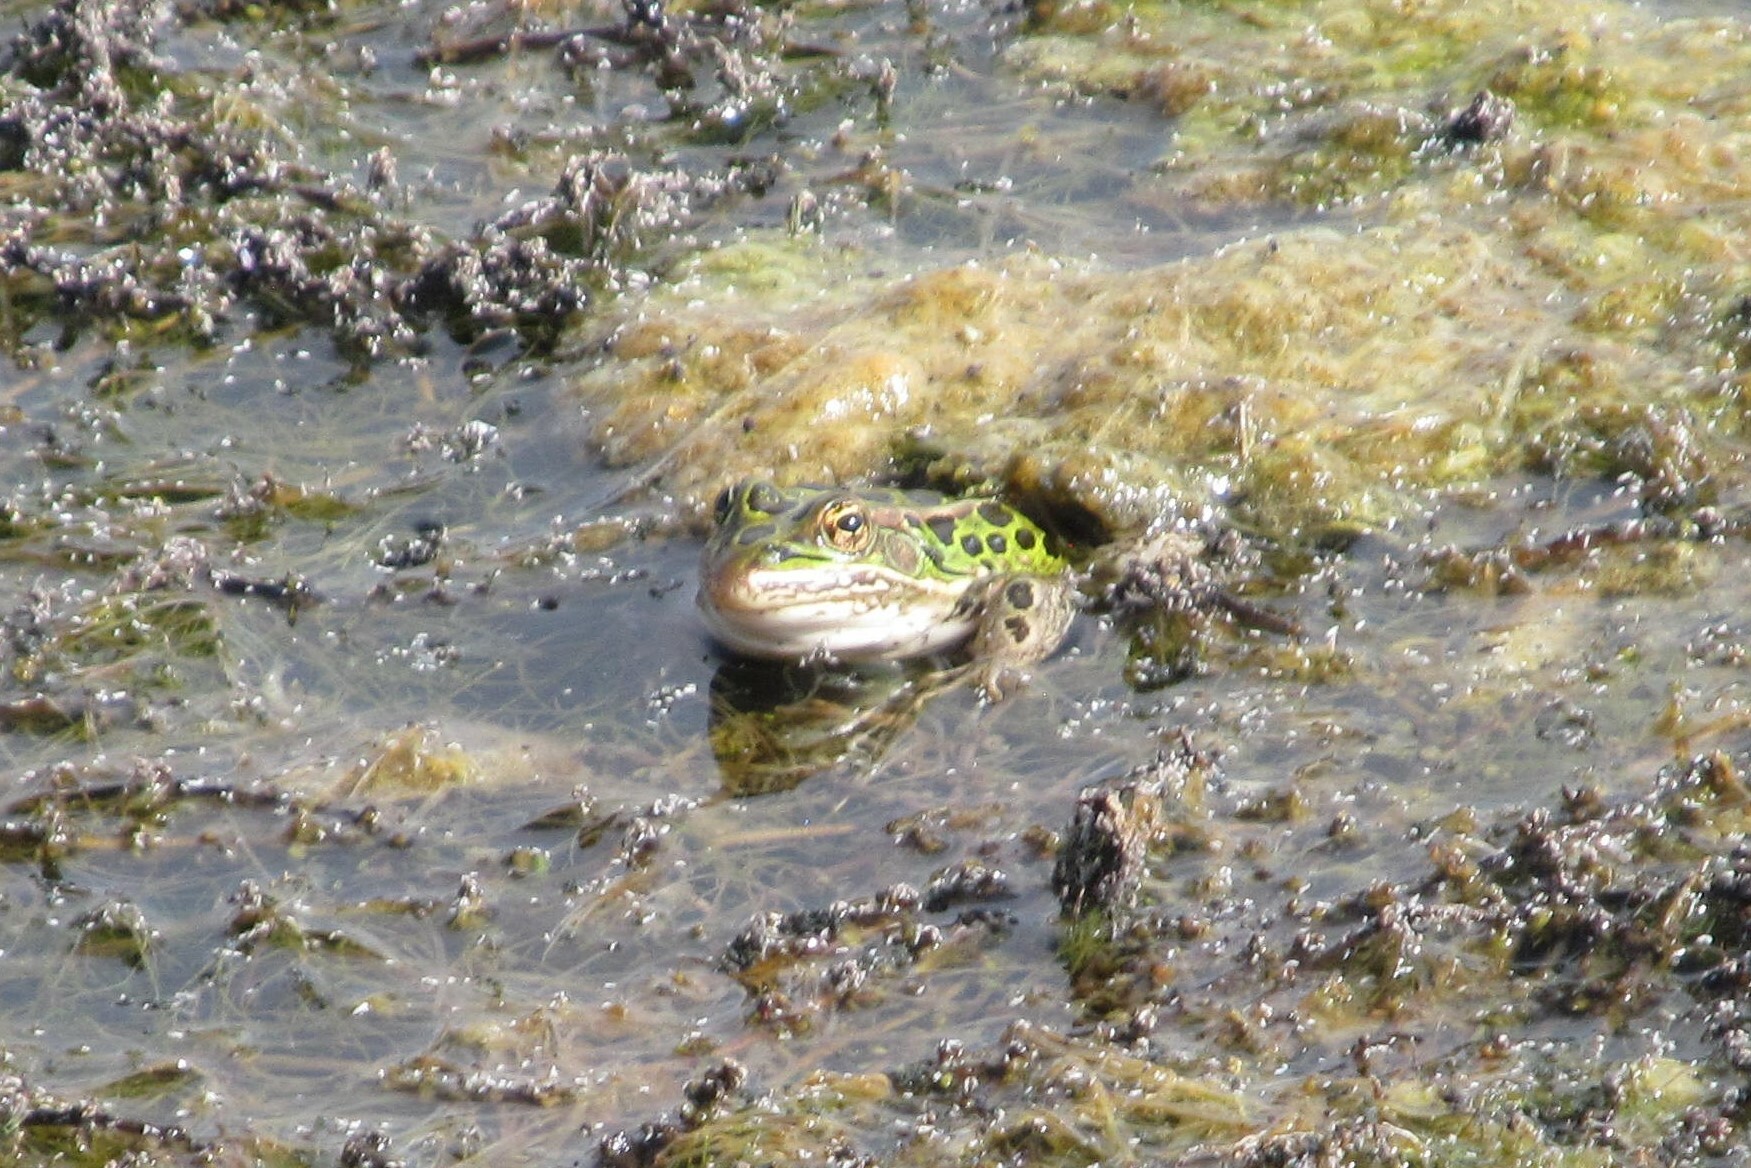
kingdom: Animalia
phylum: Chordata
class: Amphibia
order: Anura
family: Ranidae
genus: Lithobates
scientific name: Lithobates pipiens
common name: Northern leopard frog
